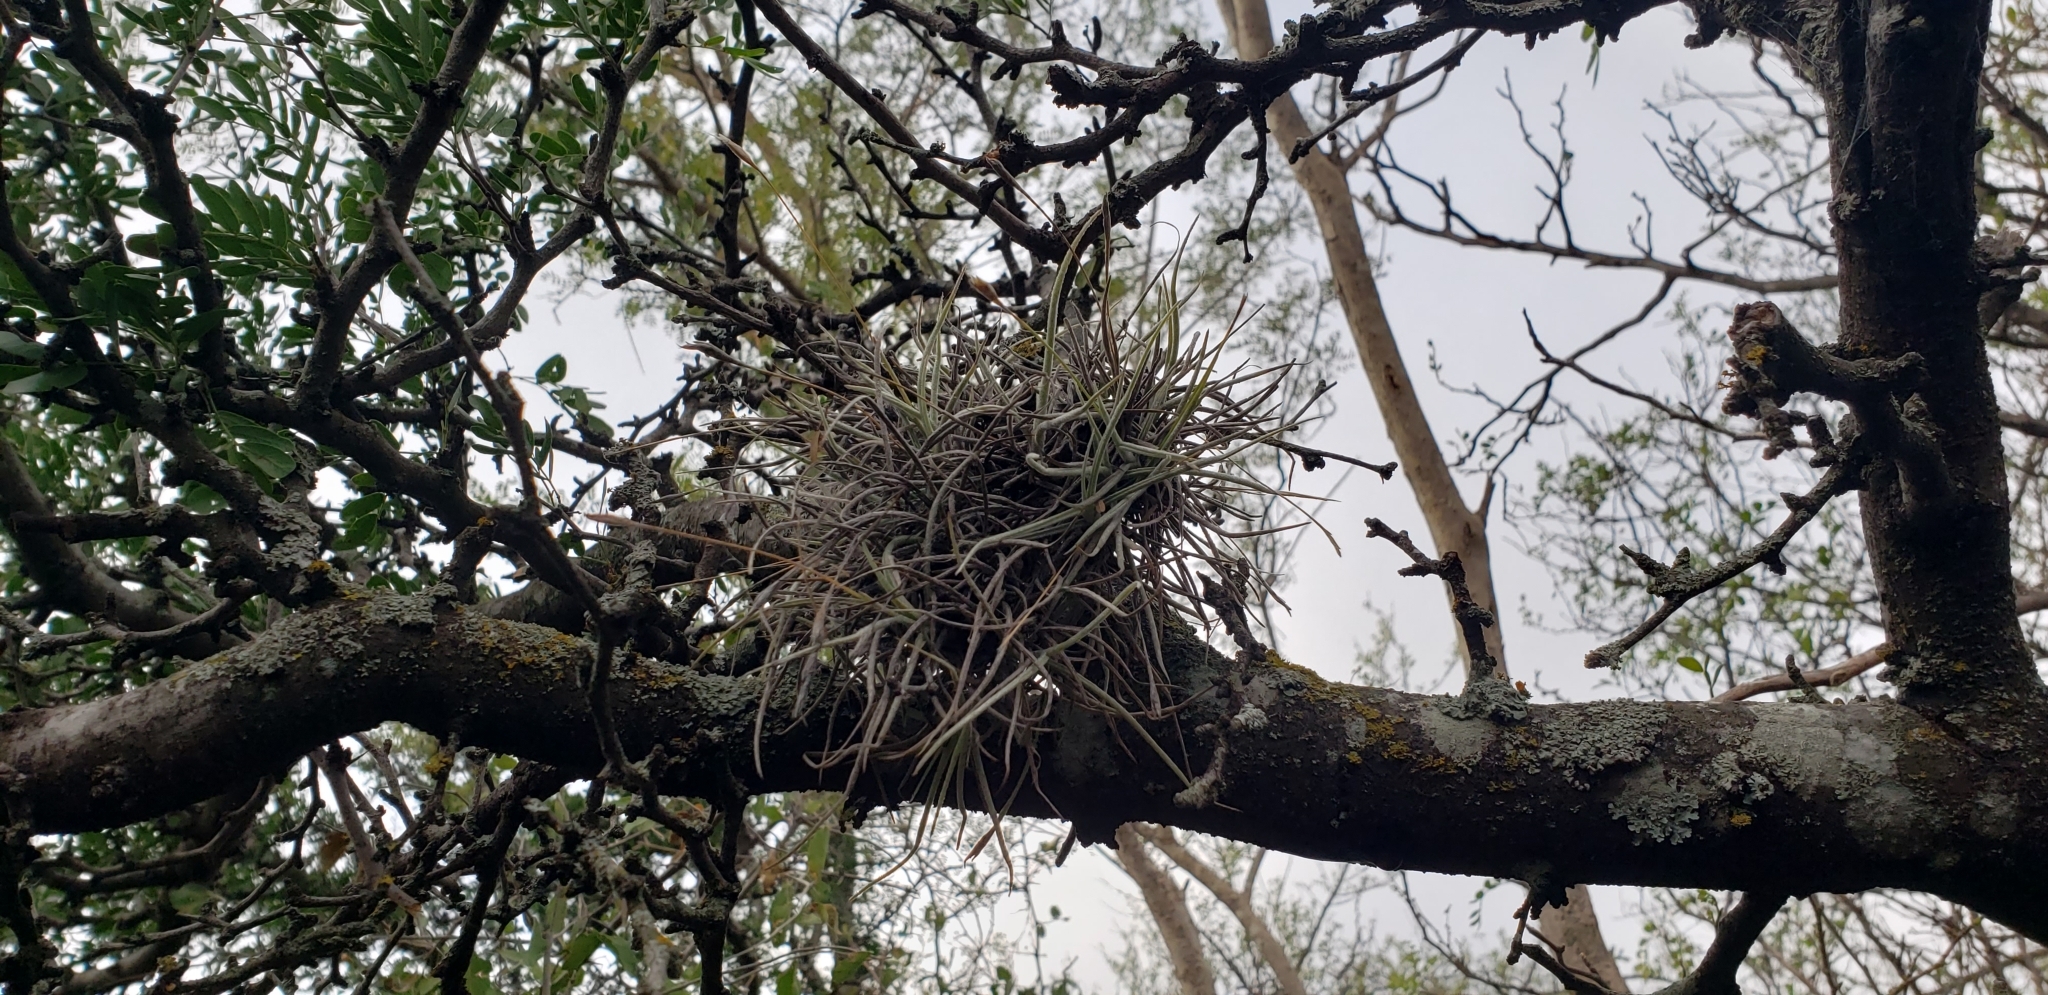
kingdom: Plantae
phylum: Tracheophyta
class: Liliopsida
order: Poales
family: Bromeliaceae
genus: Tillandsia
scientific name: Tillandsia recurvata
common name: Small ballmoss
